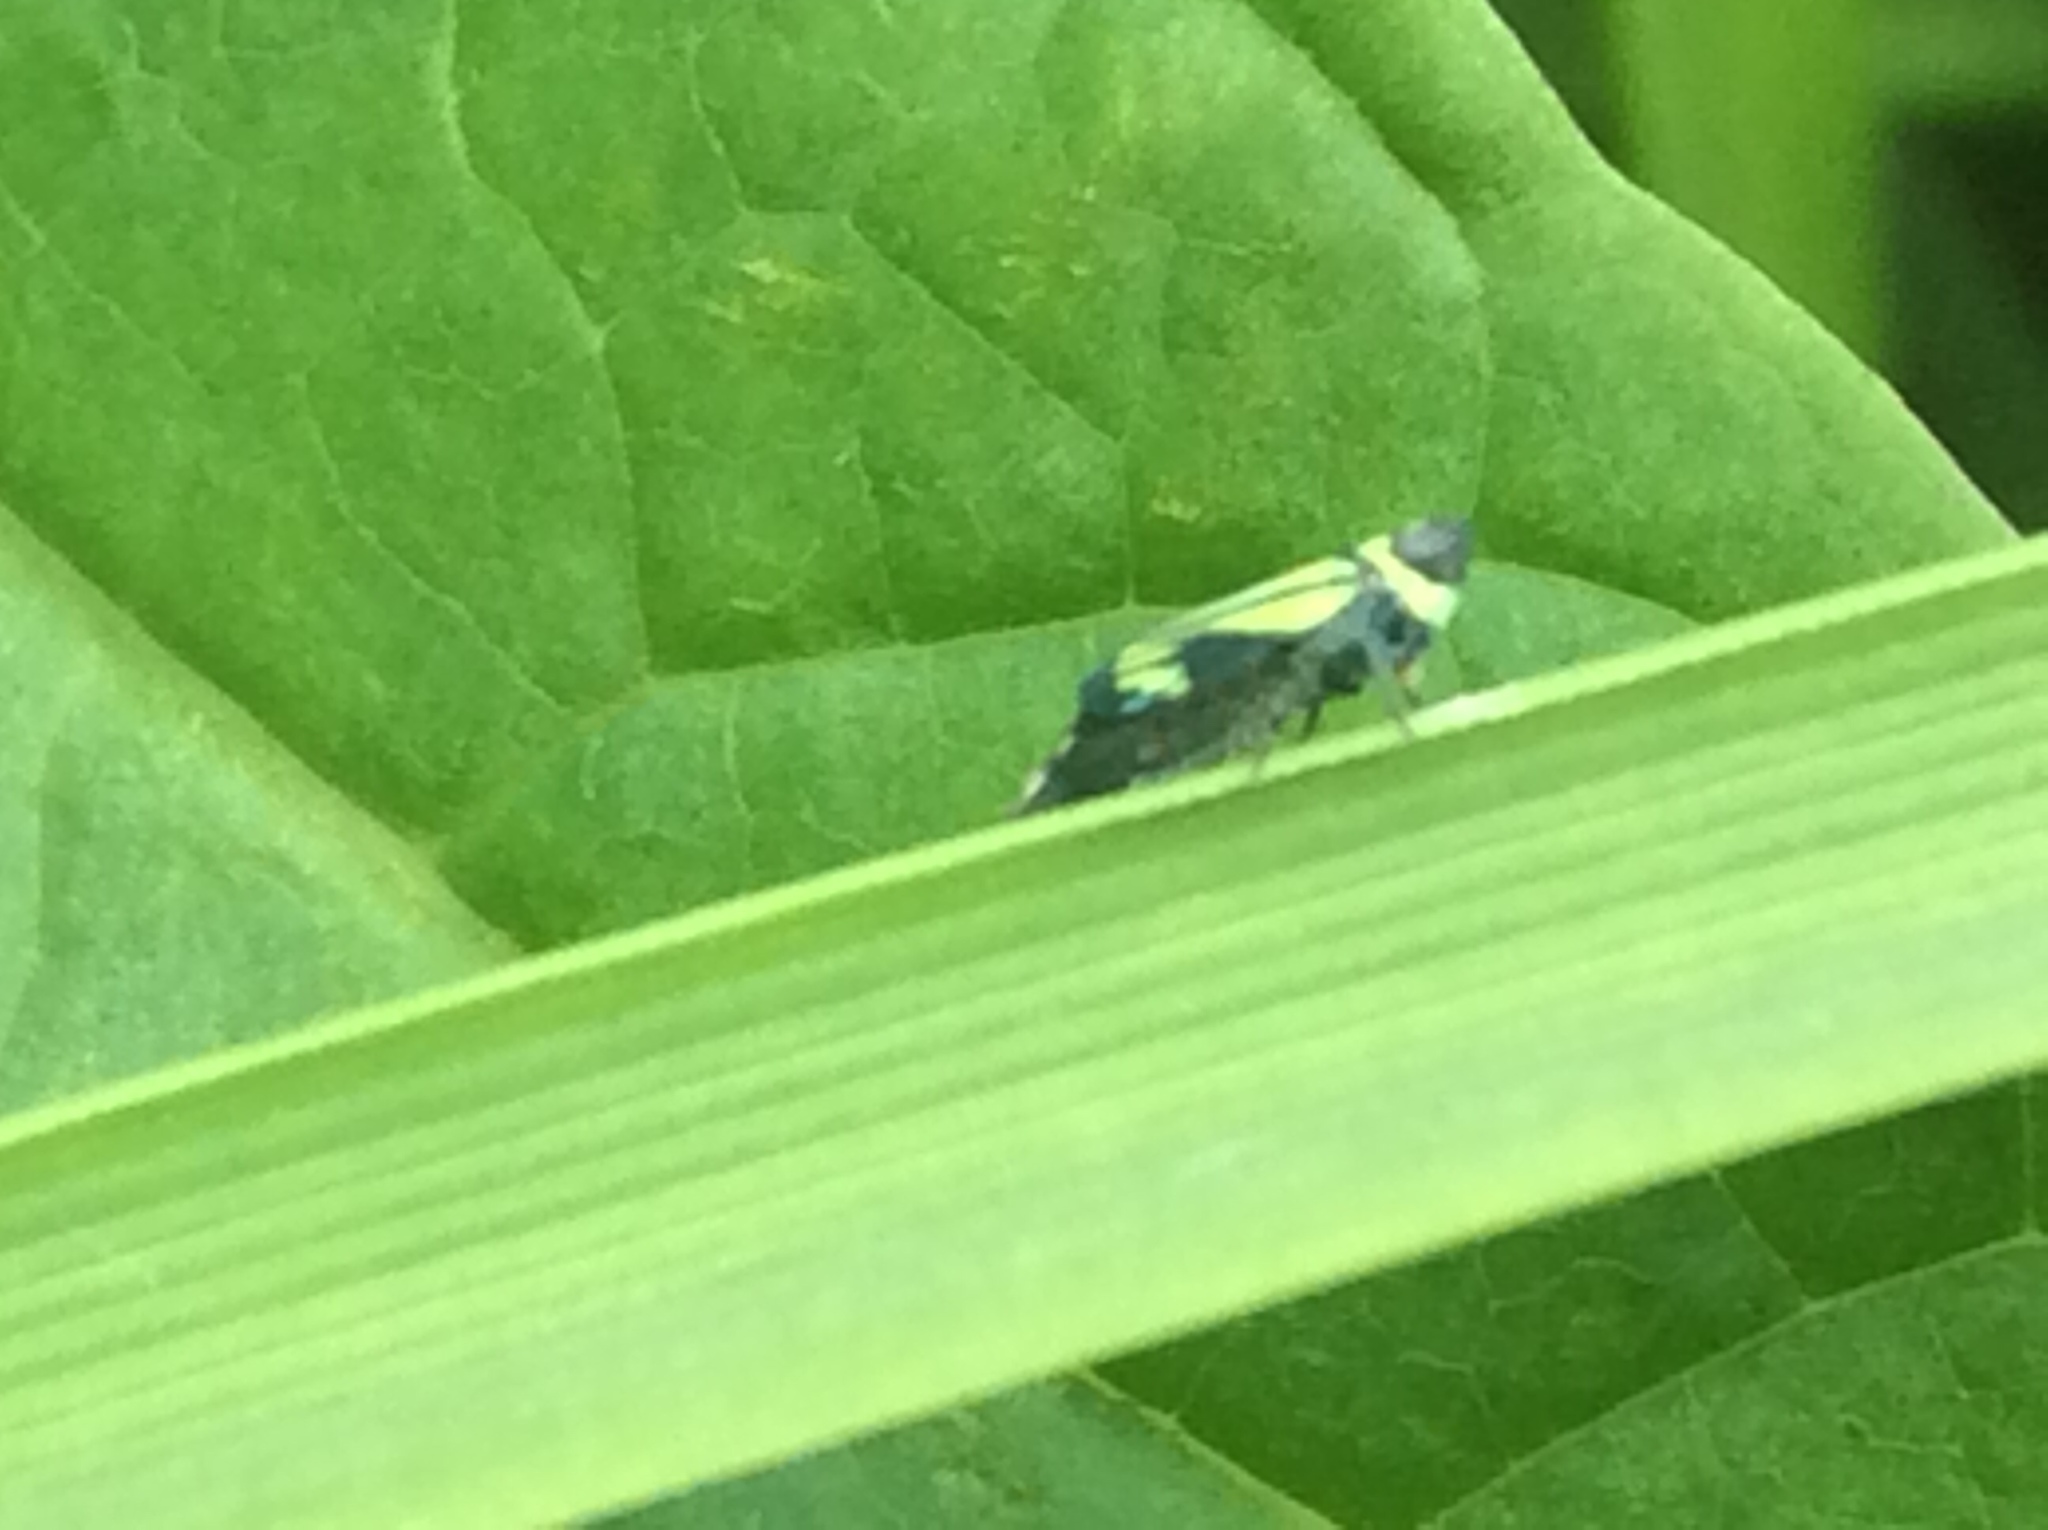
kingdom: Animalia
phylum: Arthropoda
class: Insecta
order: Hemiptera
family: Cicadellidae
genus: Stirellus
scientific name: Stirellus bicolor
